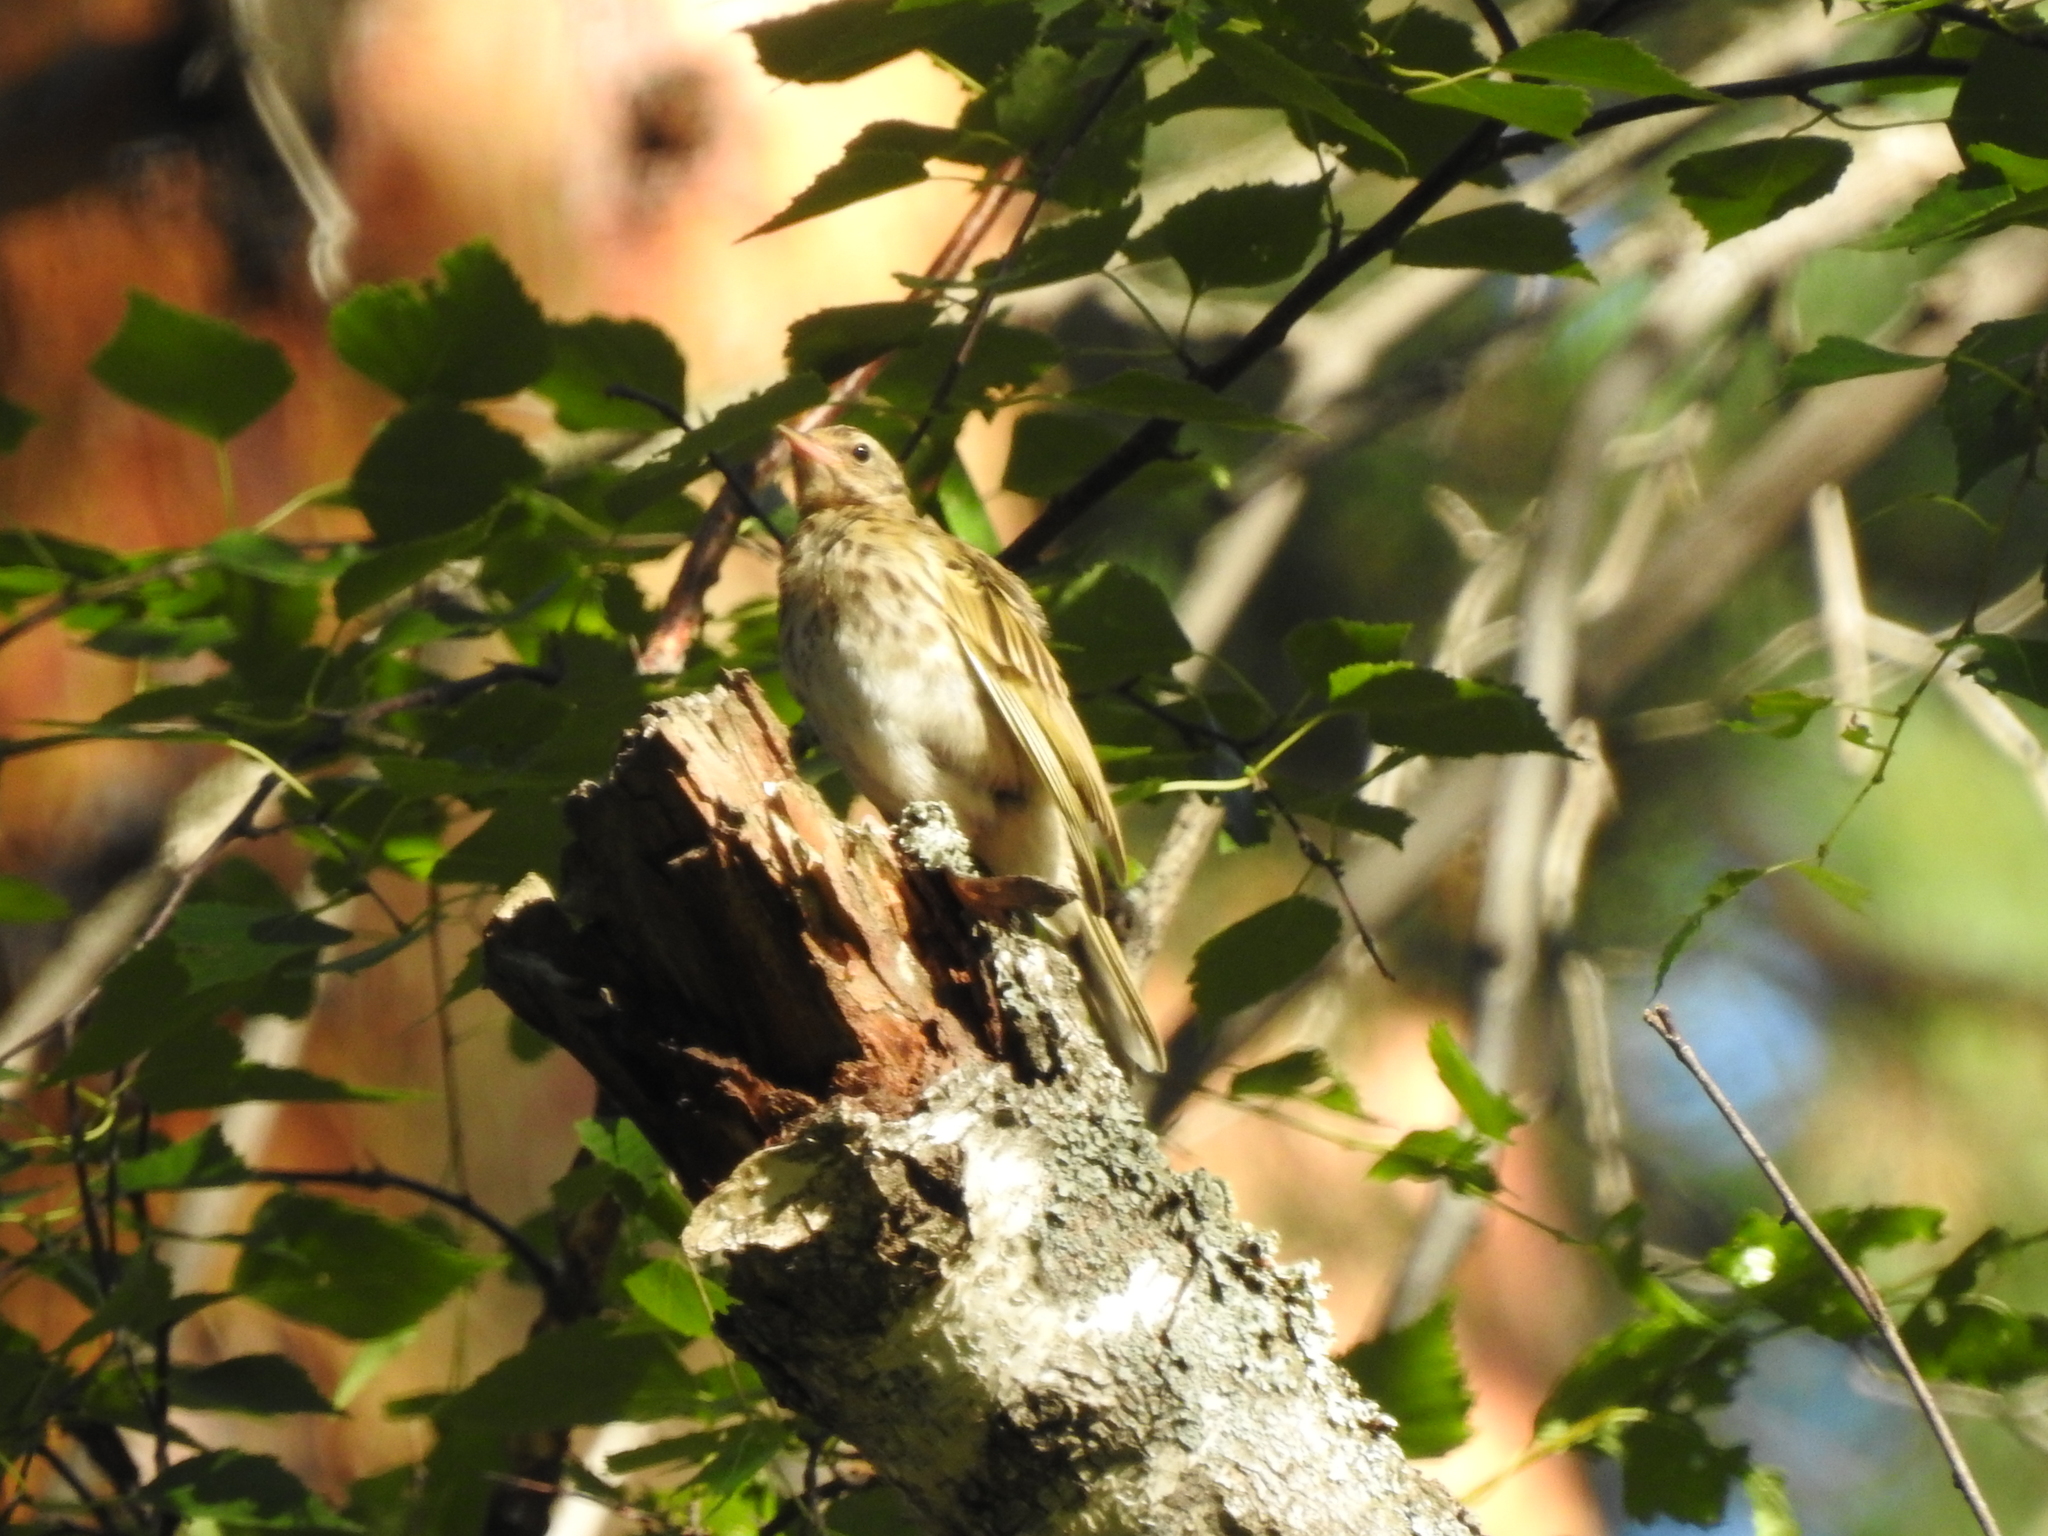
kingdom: Animalia
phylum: Chordata
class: Aves
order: Passeriformes
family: Motacillidae
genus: Anthus
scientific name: Anthus trivialis
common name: Tree pipit
